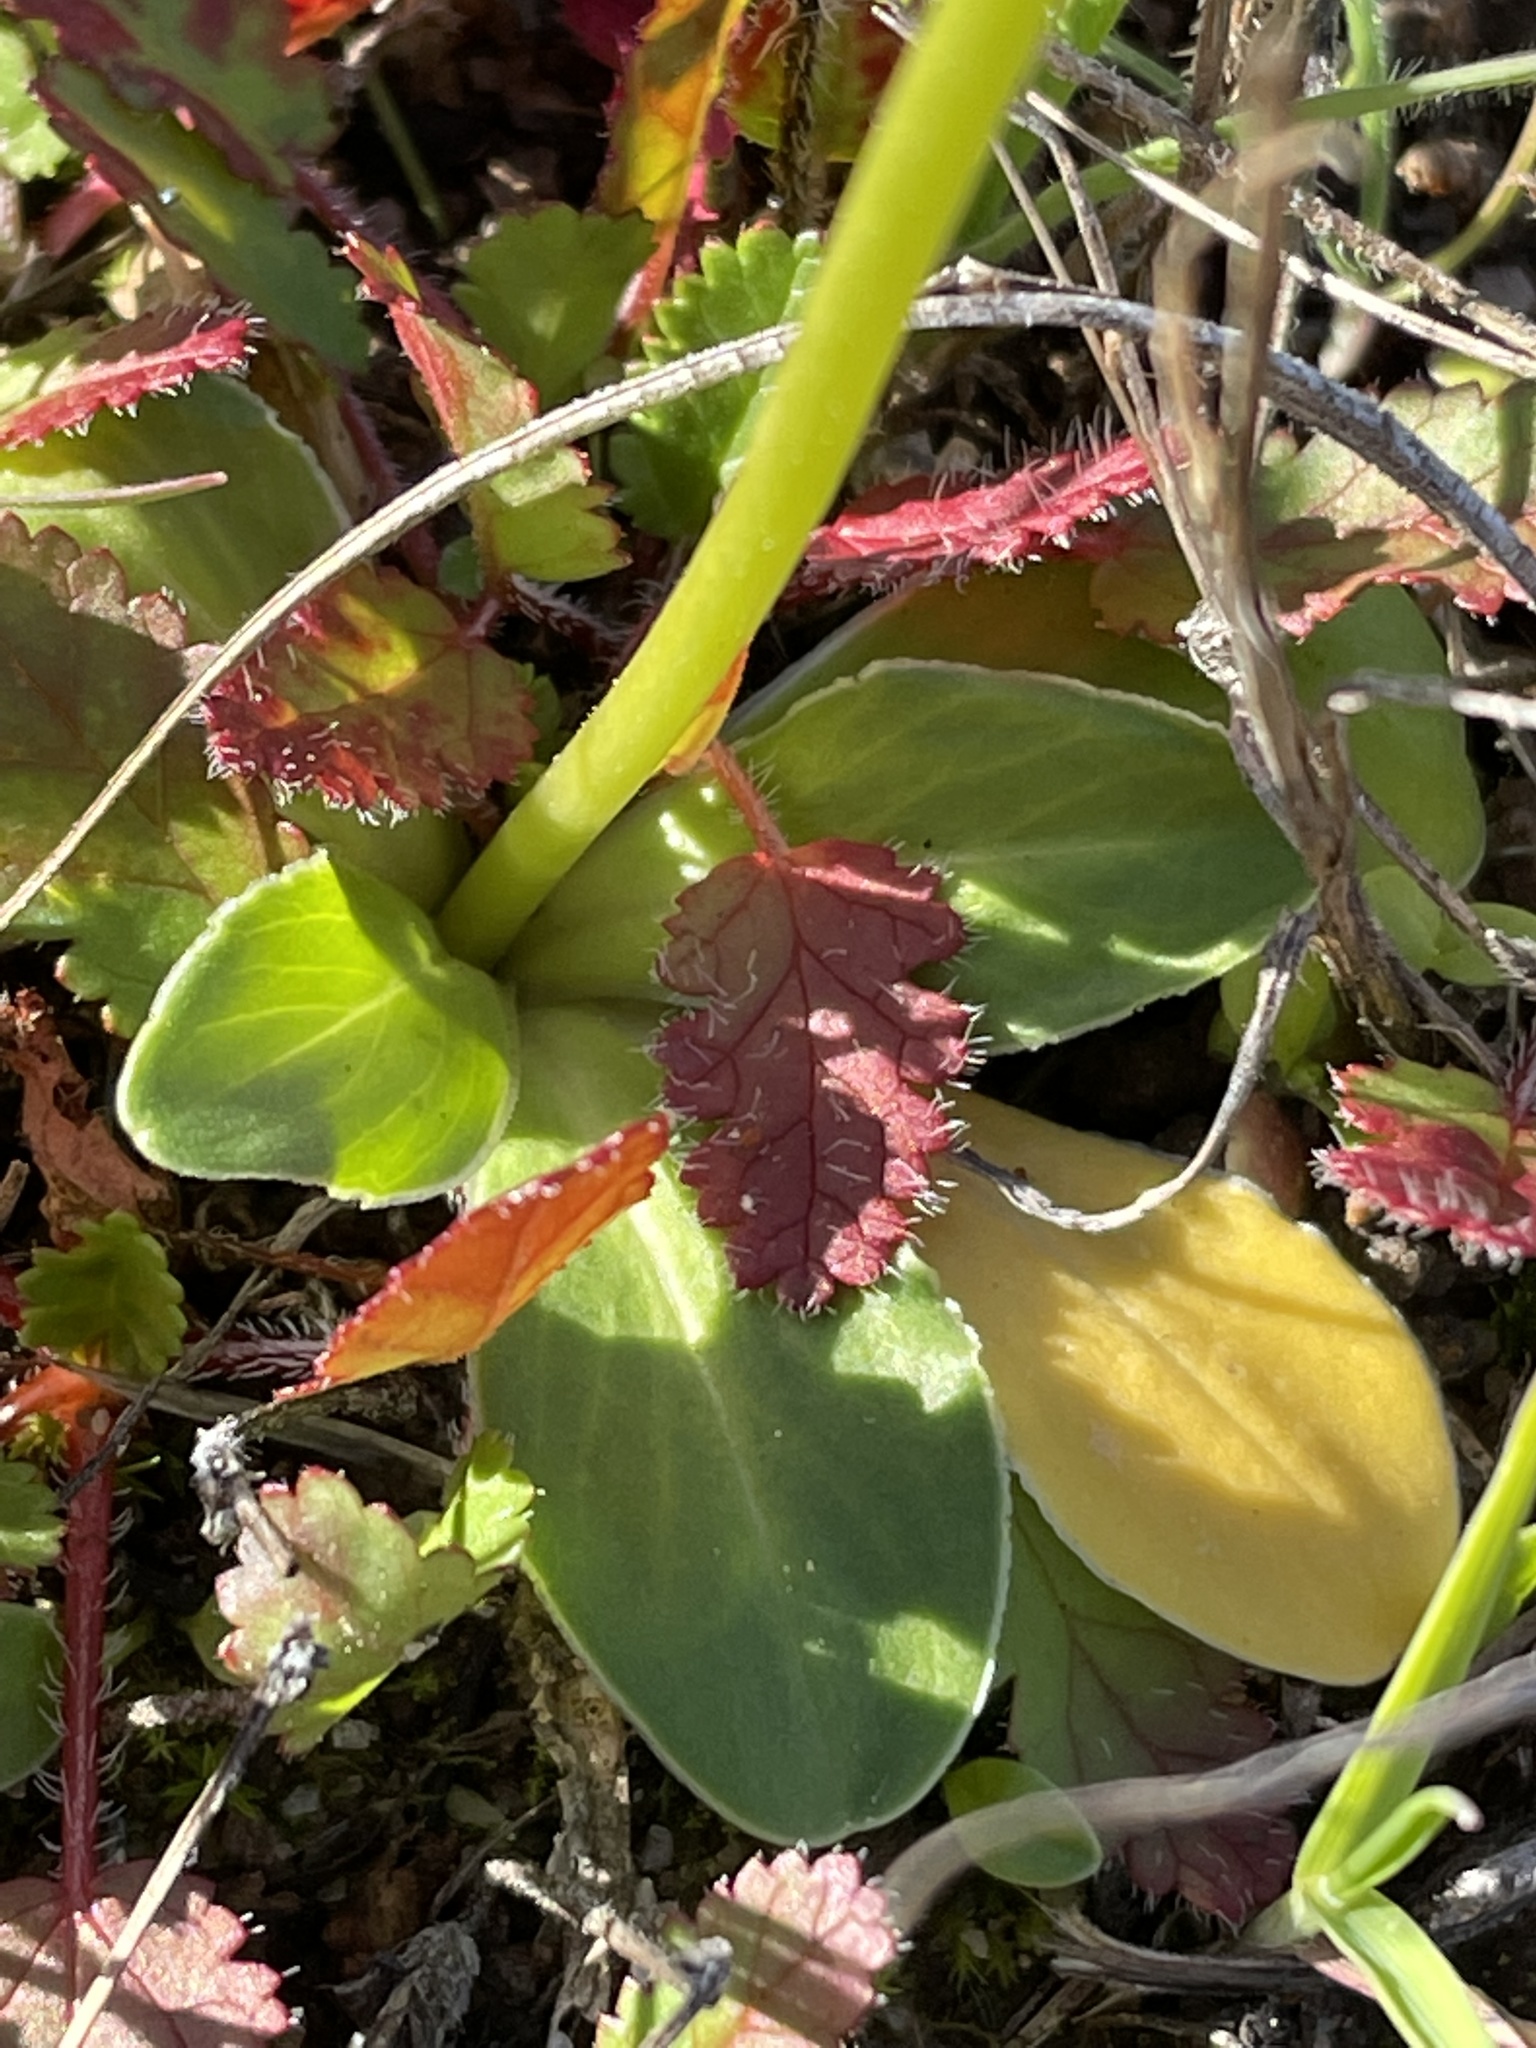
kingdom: Plantae
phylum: Tracheophyta
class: Magnoliopsida
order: Ericales
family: Primulaceae
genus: Dodecatheon
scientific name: Dodecatheon clevelandii
